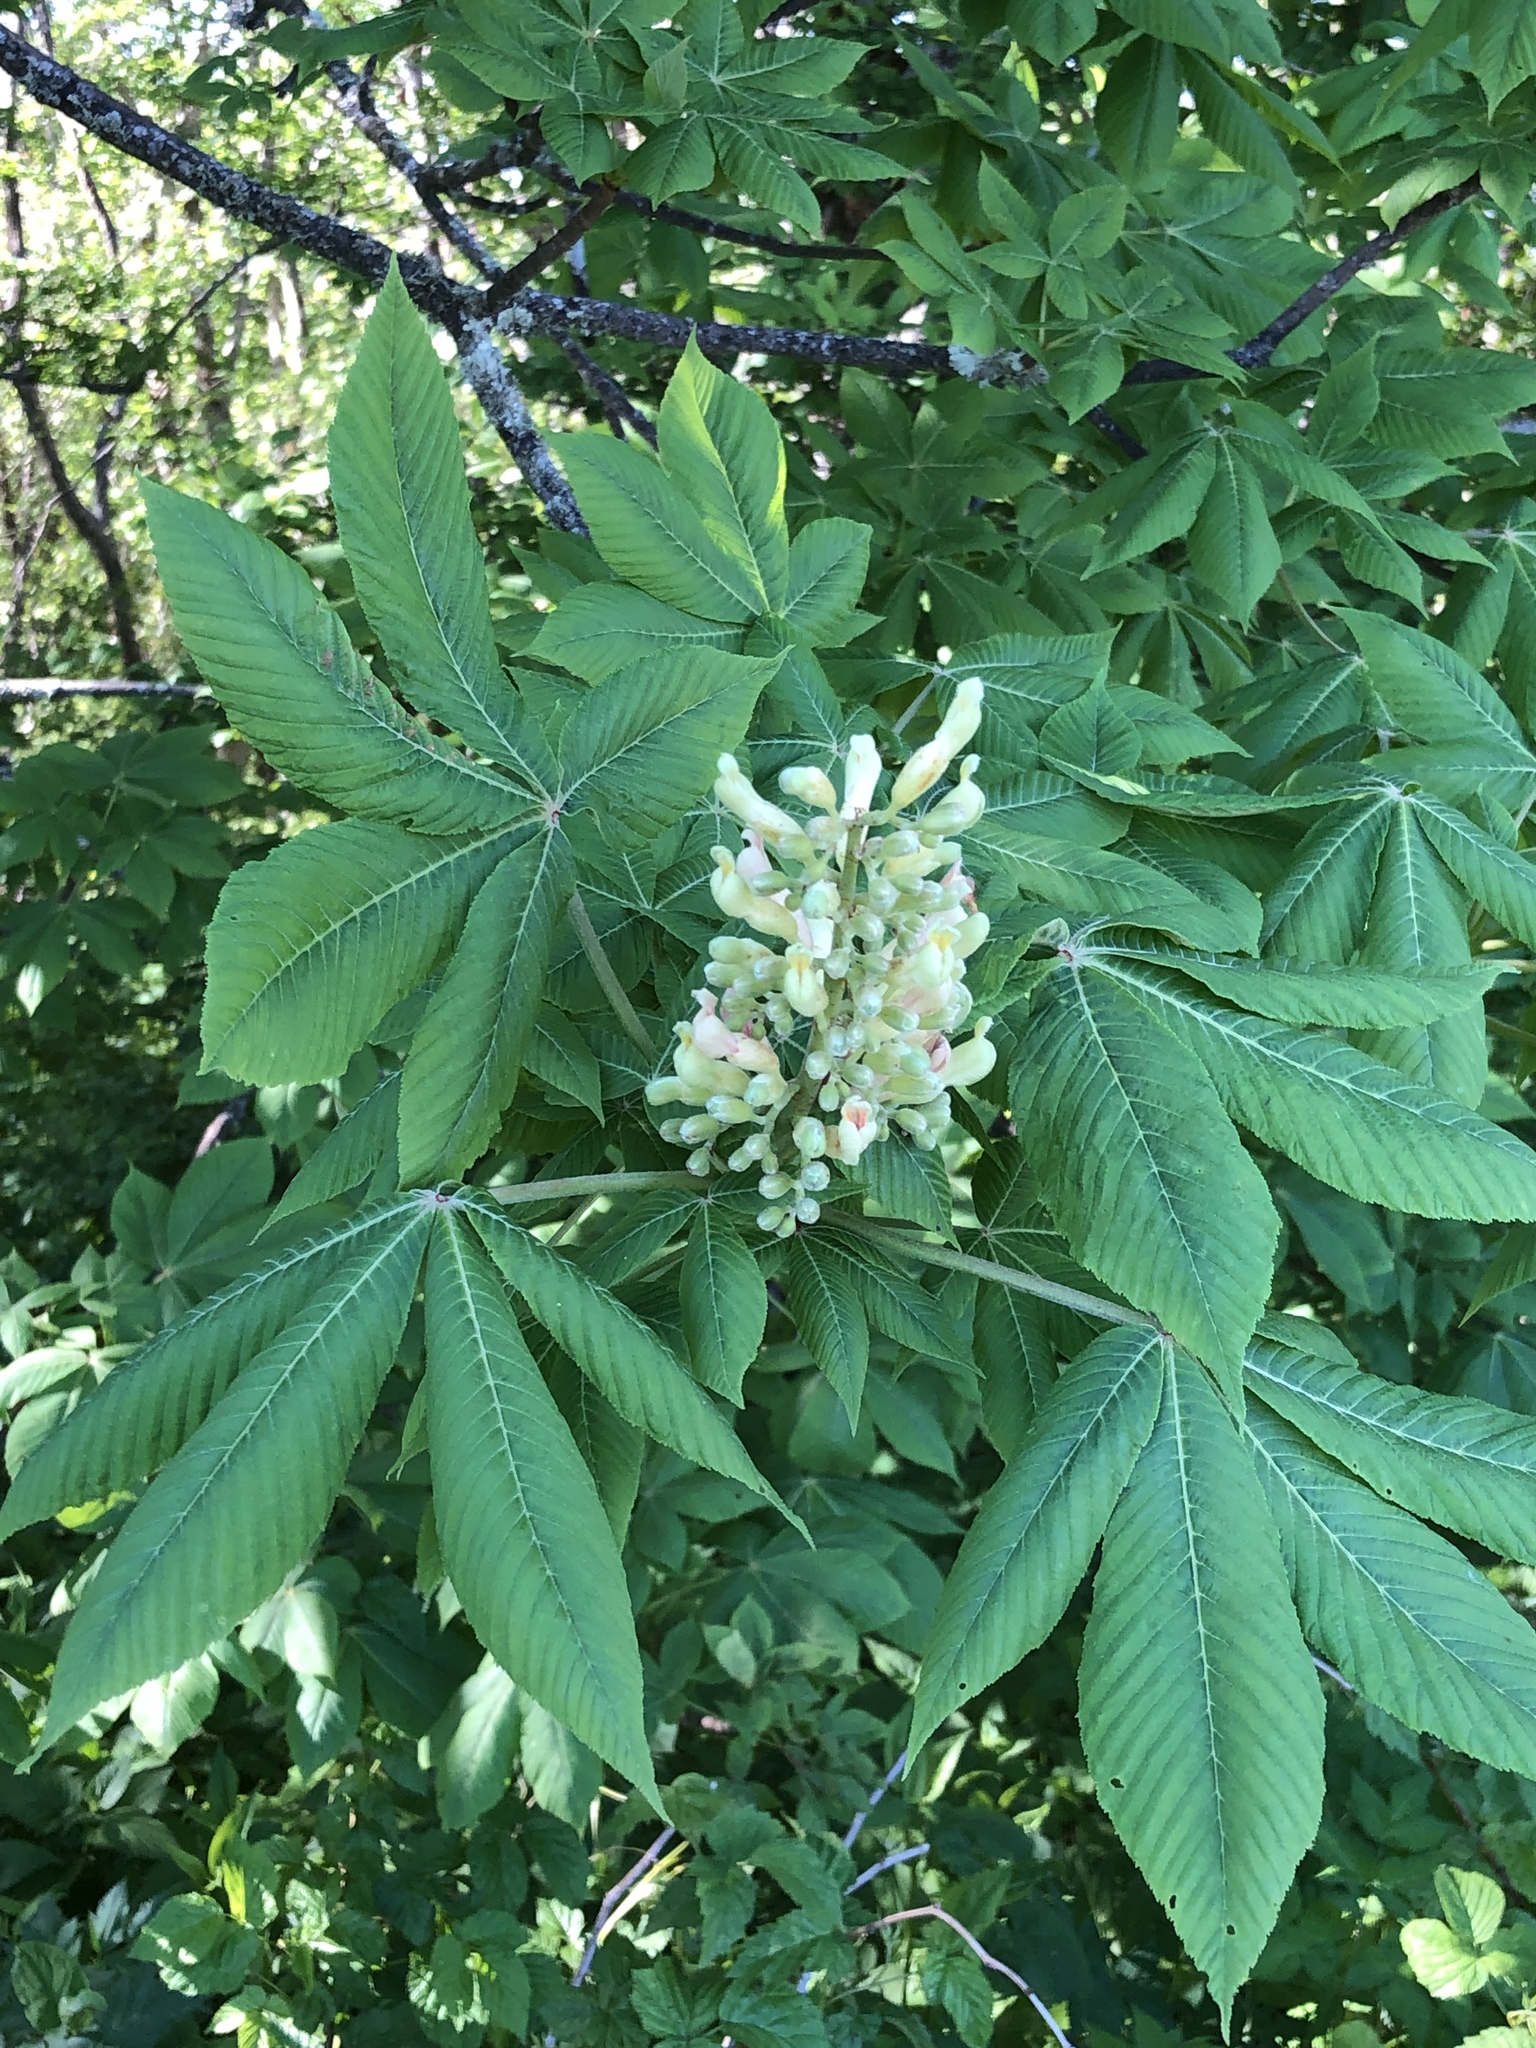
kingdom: Plantae
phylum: Tracheophyta
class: Magnoliopsida
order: Sapindales
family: Sapindaceae
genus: Aesculus
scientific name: Aesculus flava
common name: Yellow buckeye
